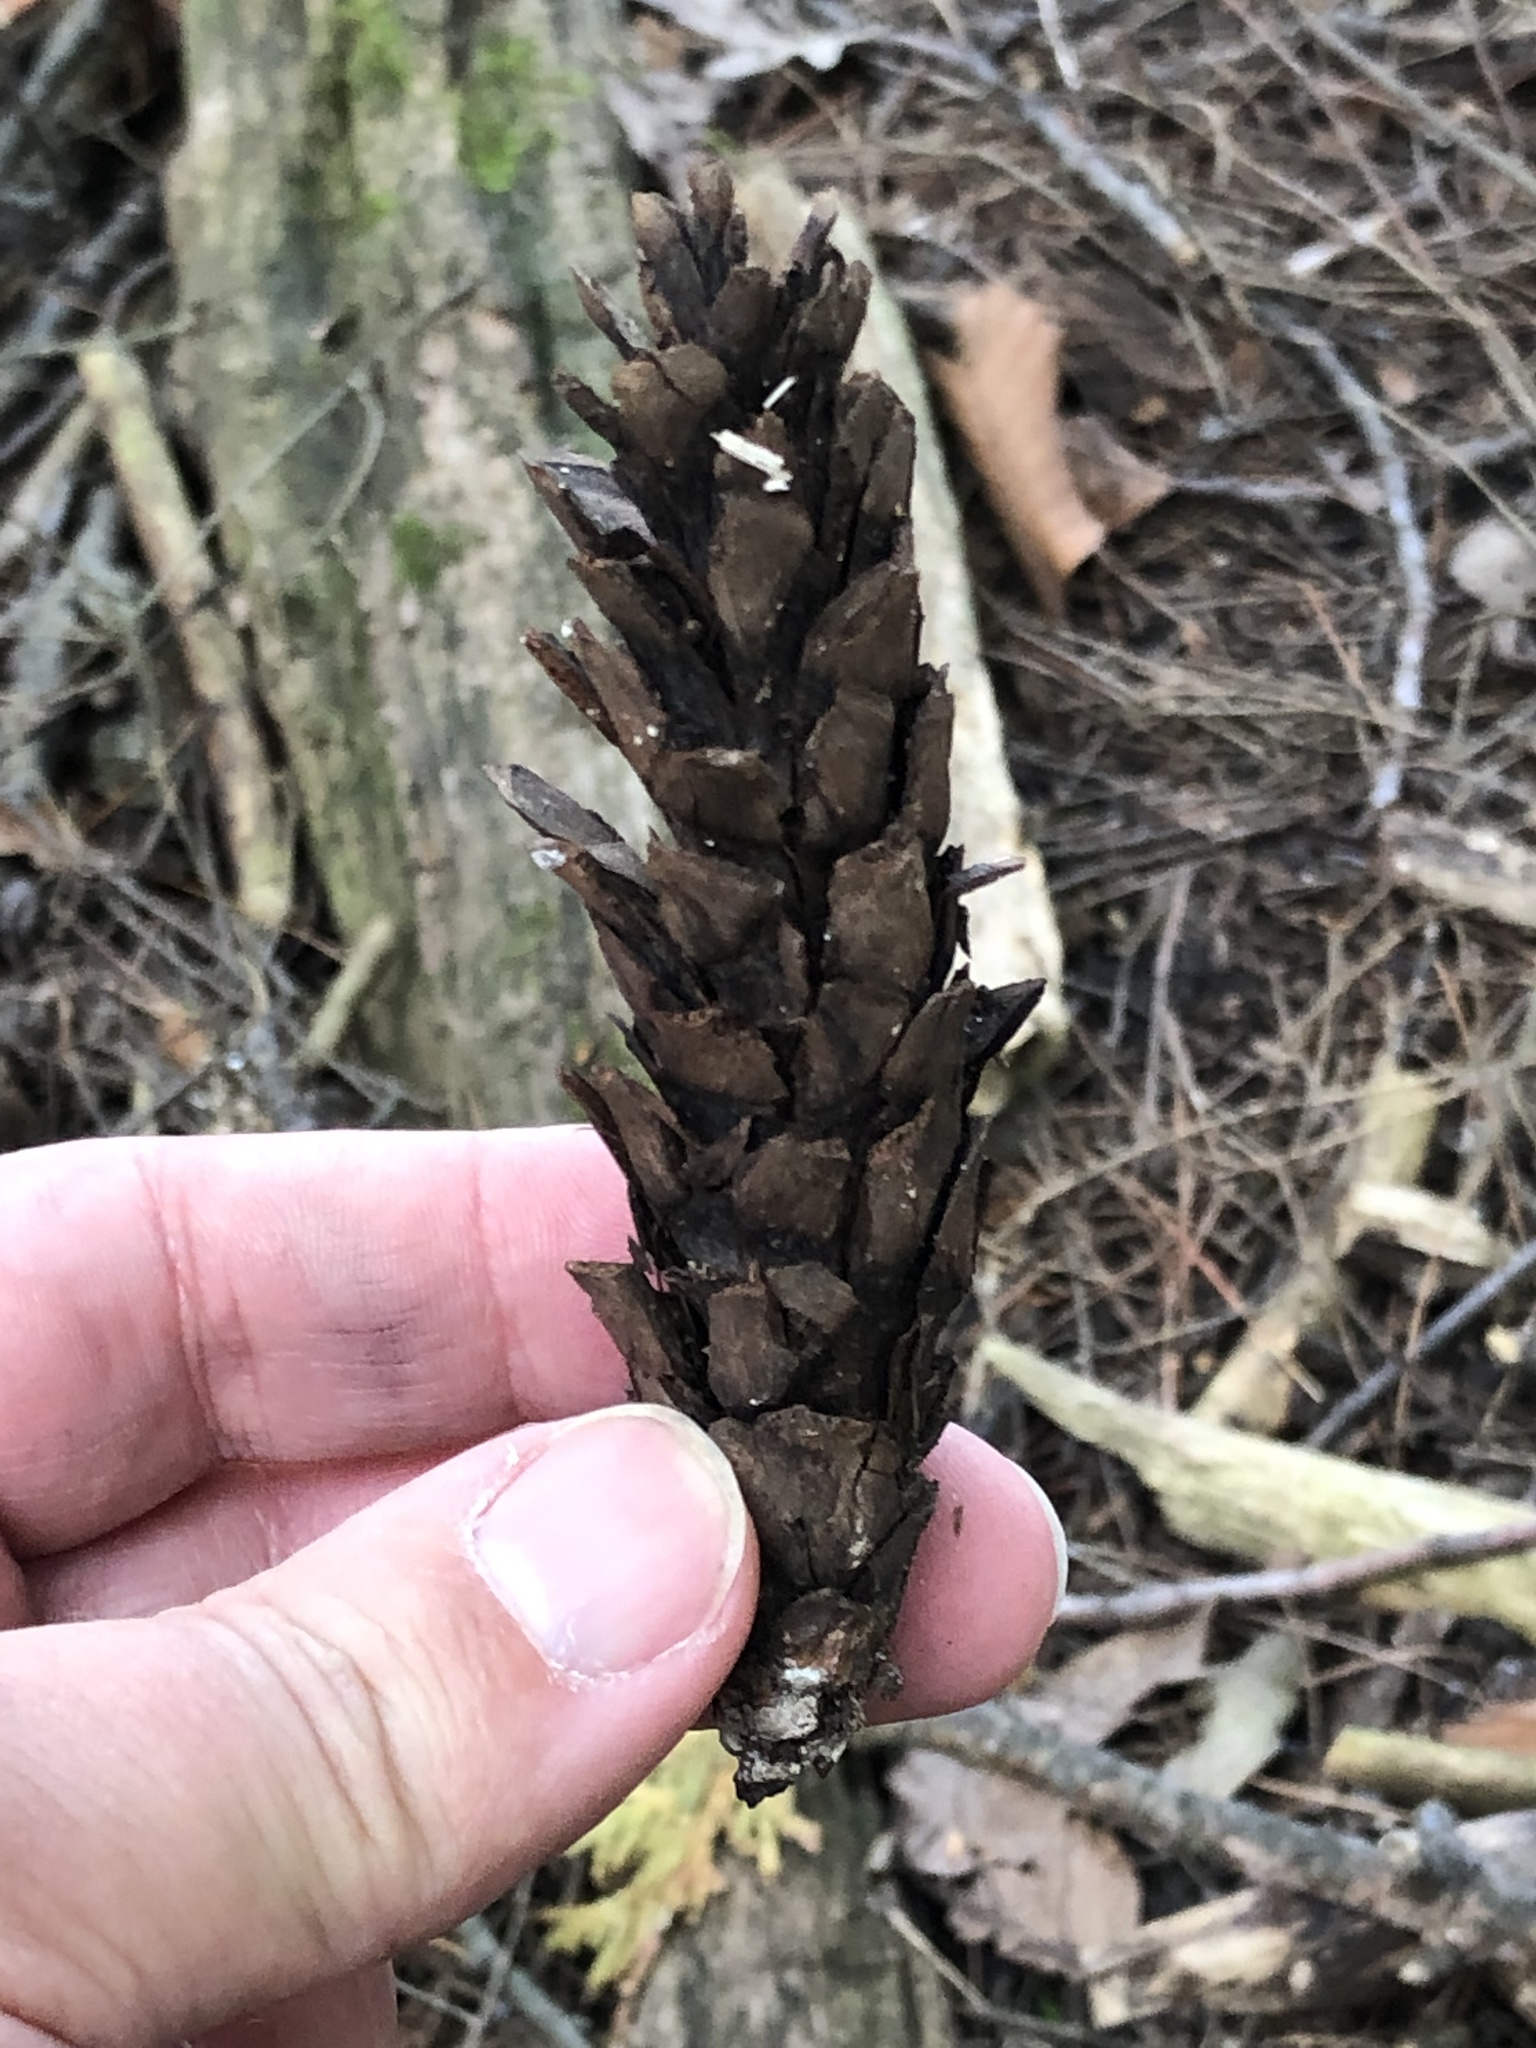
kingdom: Plantae
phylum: Tracheophyta
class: Pinopsida
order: Pinales
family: Pinaceae
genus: Pinus
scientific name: Pinus strobus
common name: Weymouth pine
